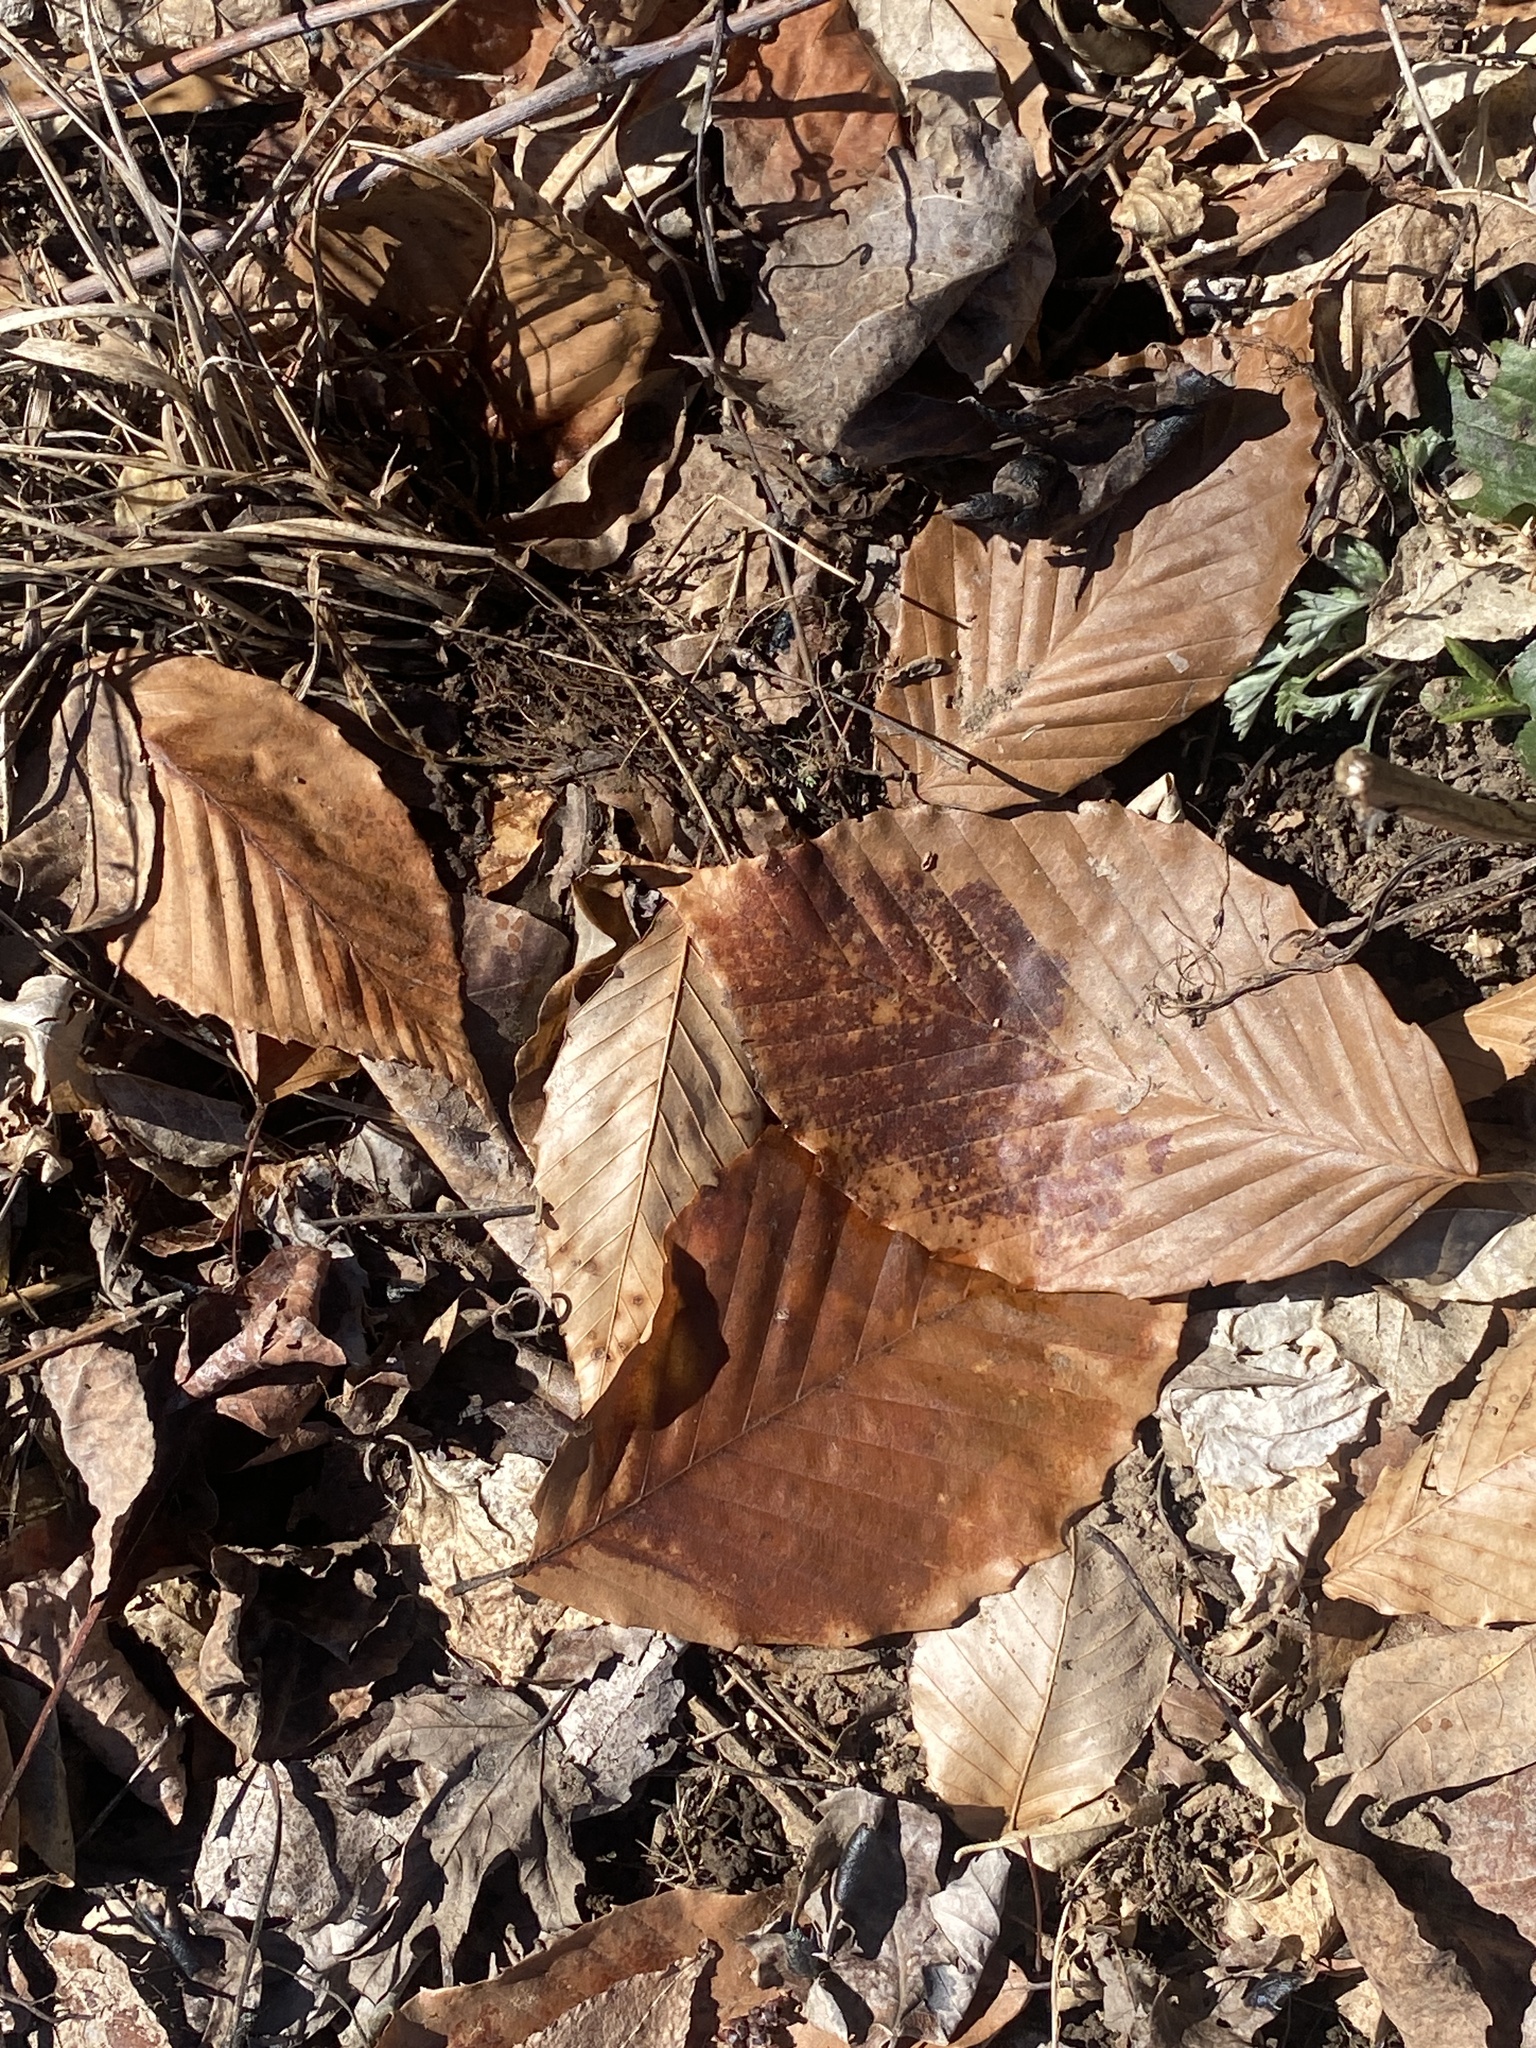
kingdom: Plantae
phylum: Tracheophyta
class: Magnoliopsida
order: Fagales
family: Fagaceae
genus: Fagus
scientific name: Fagus grandifolia
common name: American beech
